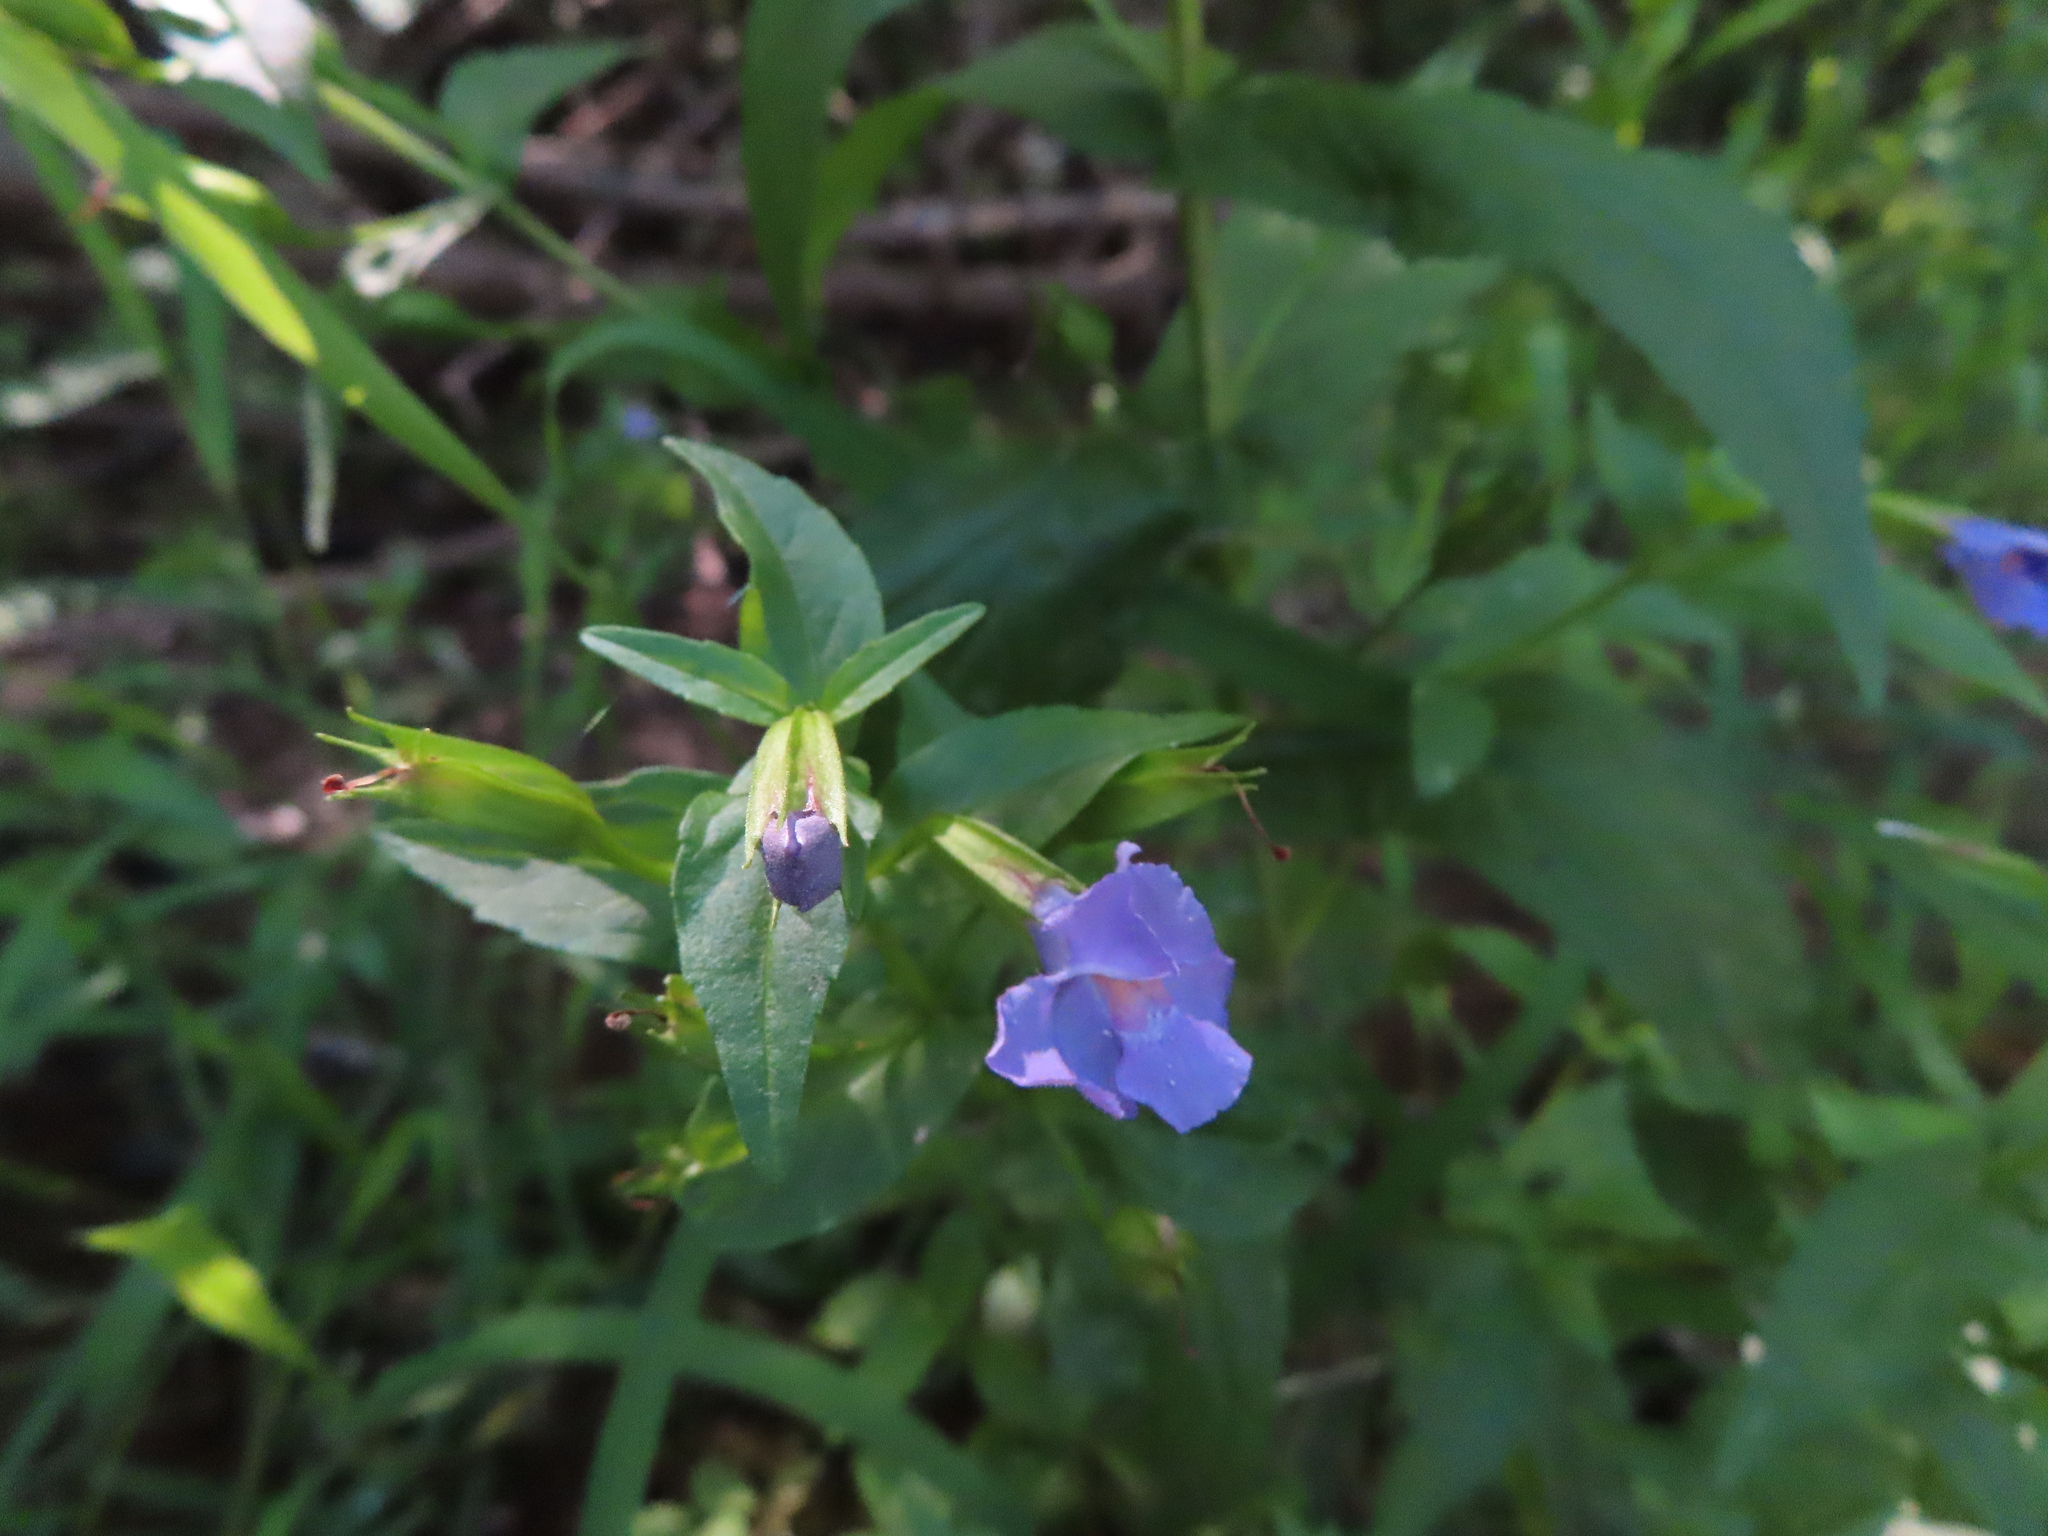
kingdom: Plantae
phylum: Tracheophyta
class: Magnoliopsida
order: Lamiales
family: Phrymaceae
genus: Mimulus
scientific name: Mimulus ringens
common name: Allegheny monkeyflower
